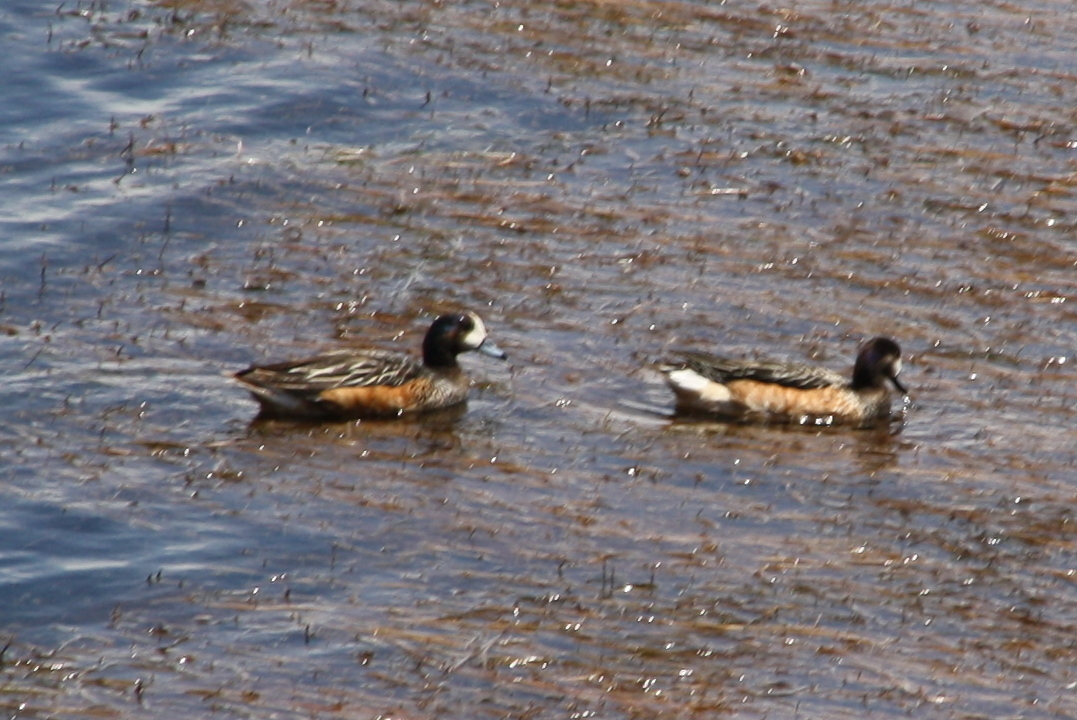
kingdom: Animalia
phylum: Chordata
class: Aves
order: Anseriformes
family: Anatidae
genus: Mareca
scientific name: Mareca sibilatrix
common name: Chiloe wigeon
